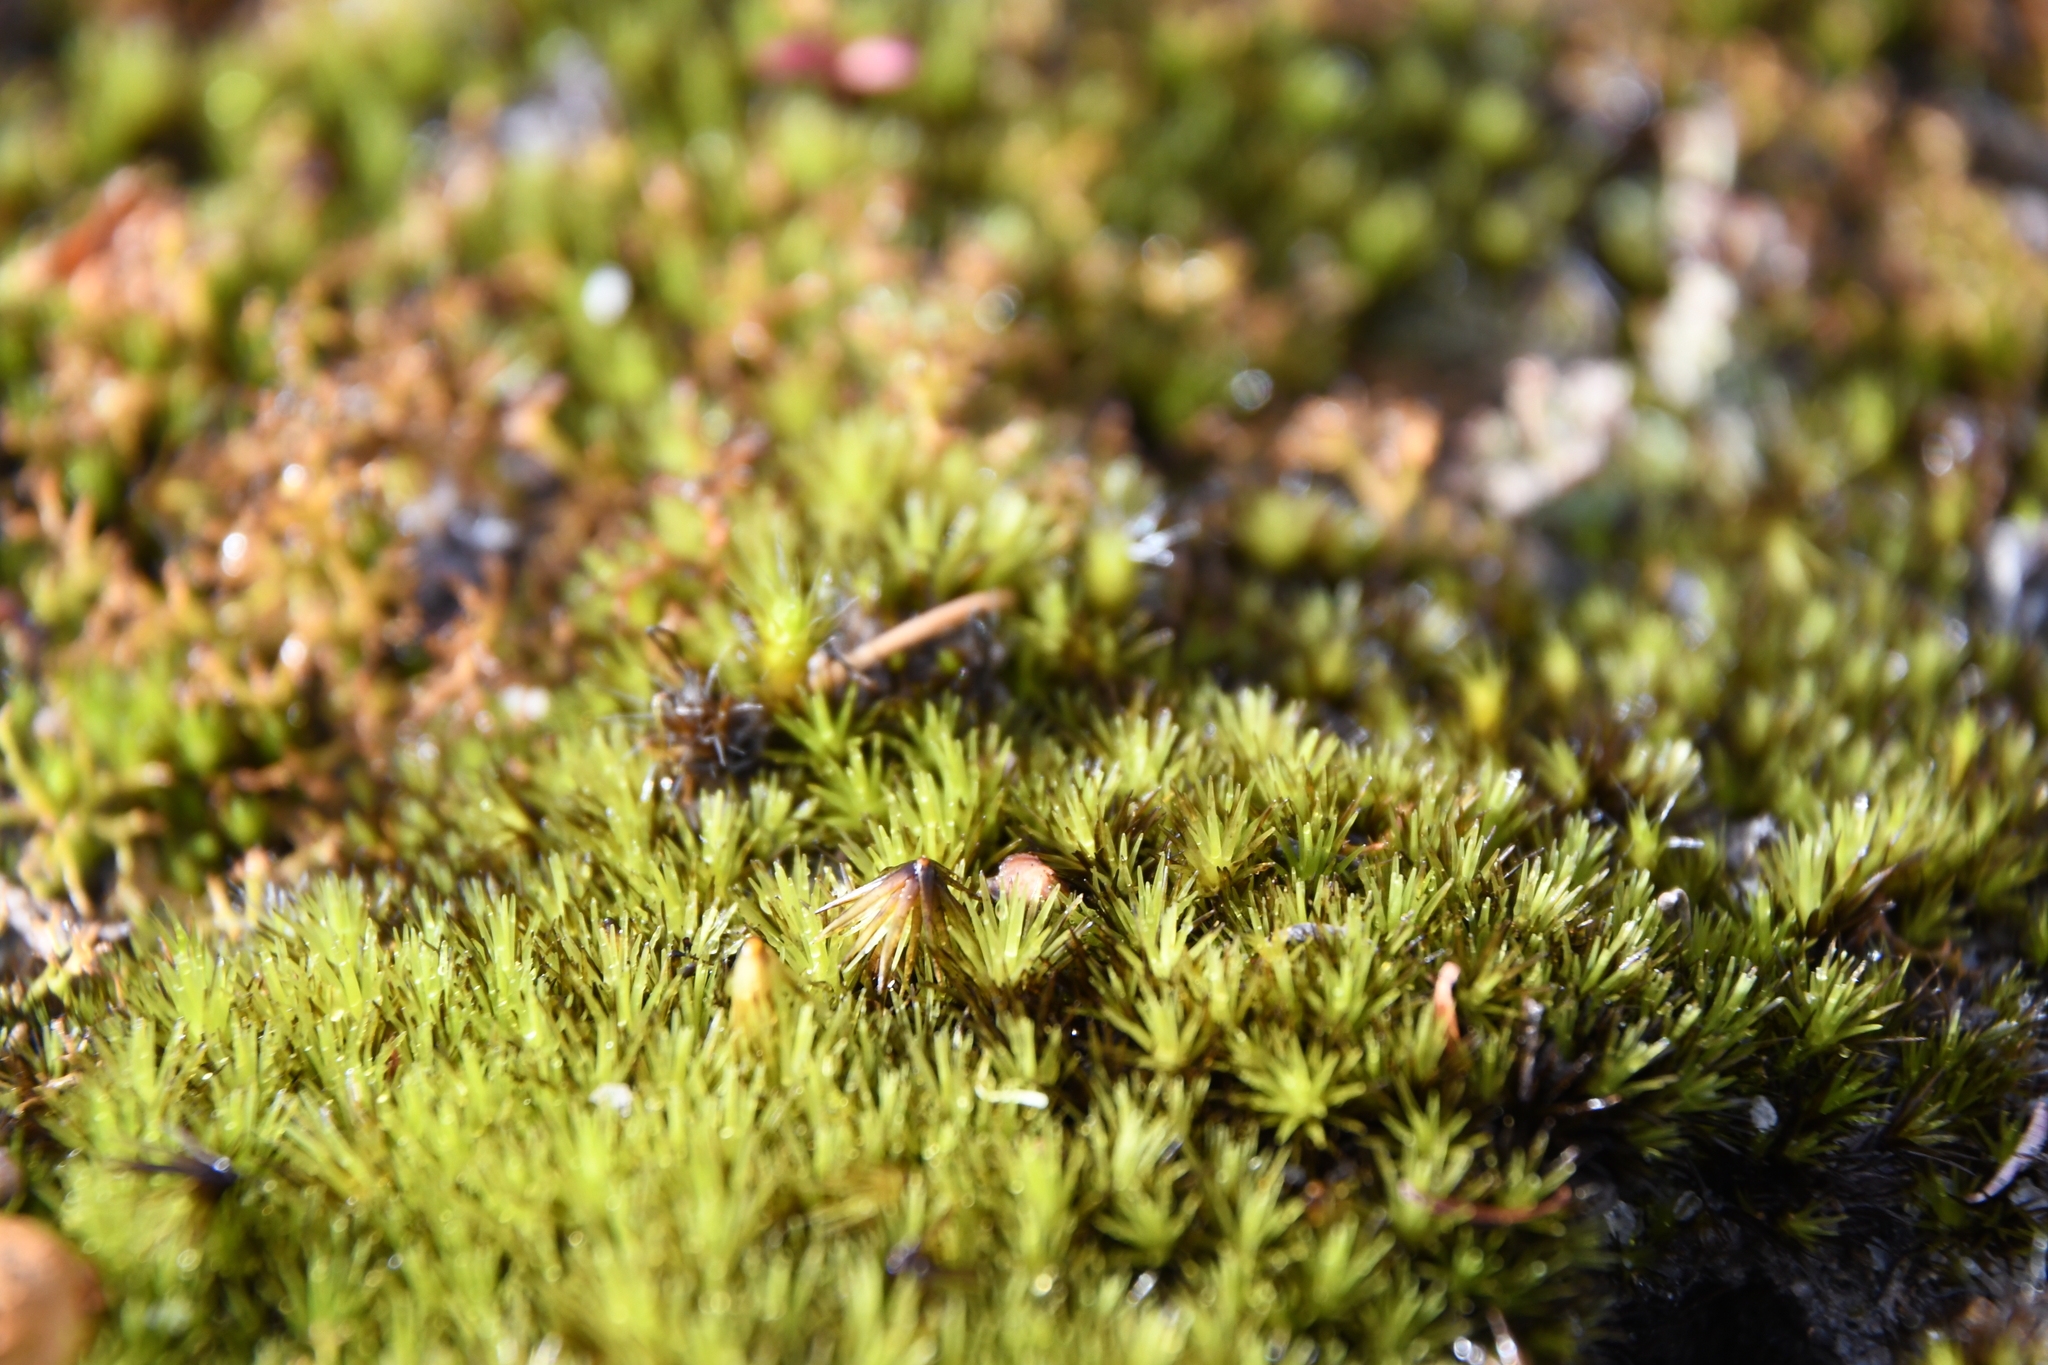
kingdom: Plantae
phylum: Bryophyta
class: Bryopsida
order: Dicranales
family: Leucobryaceae
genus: Campylopus
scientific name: Campylopus bicolor
